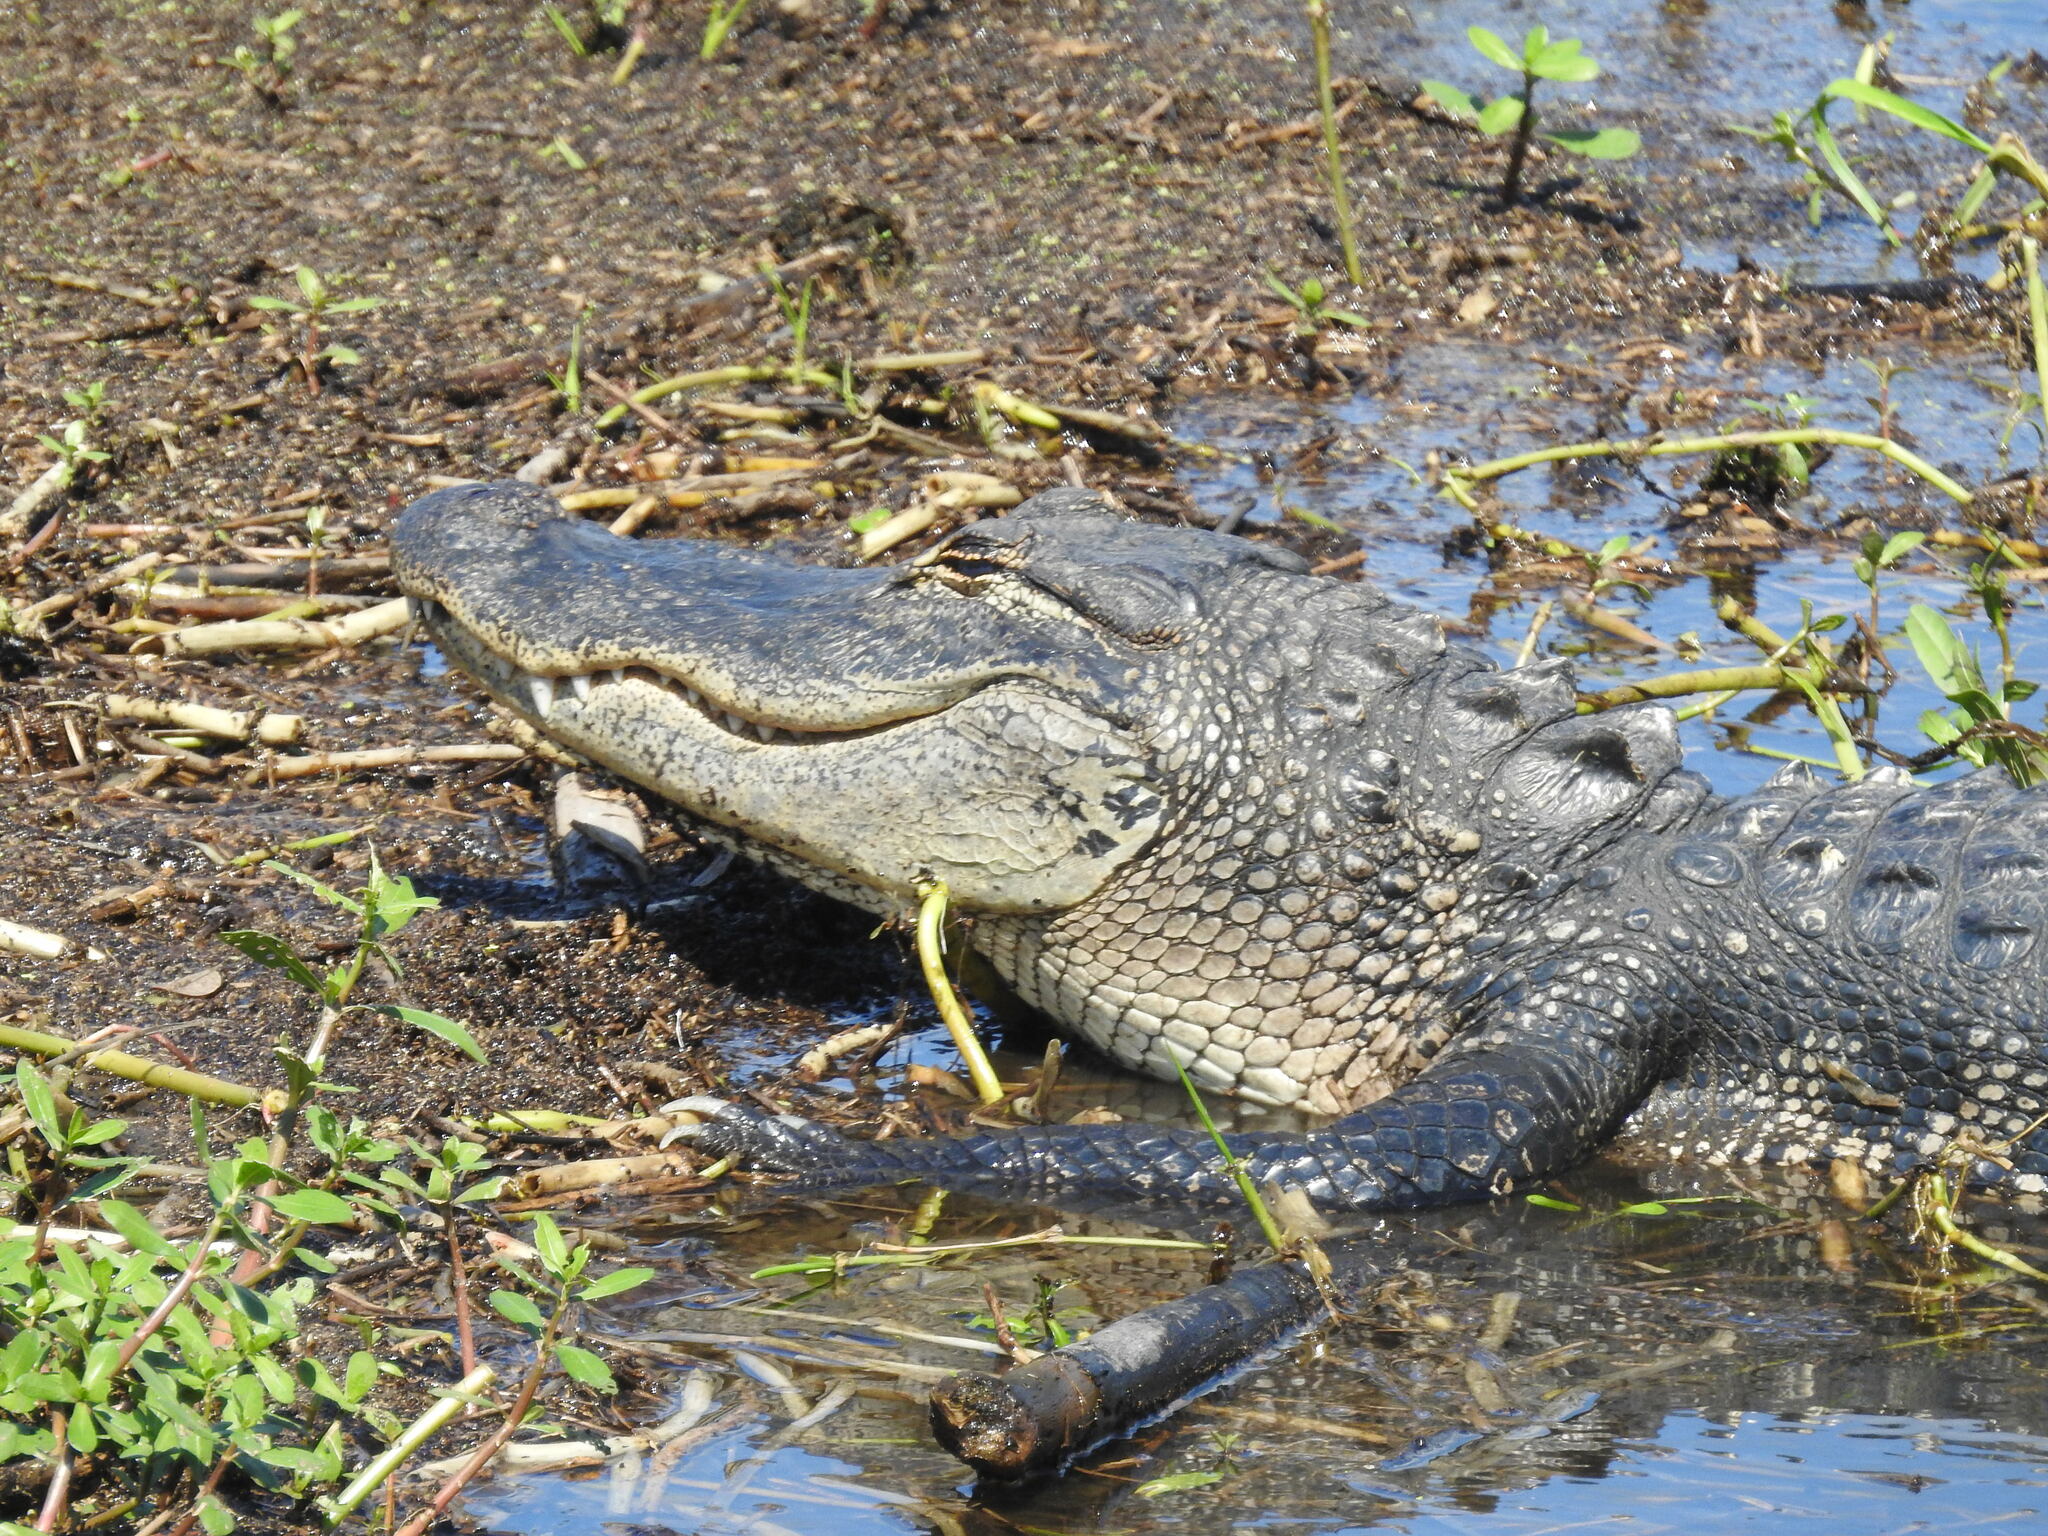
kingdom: Animalia
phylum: Chordata
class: Crocodylia
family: Alligatoridae
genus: Alligator
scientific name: Alligator mississippiensis
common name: American alligator
